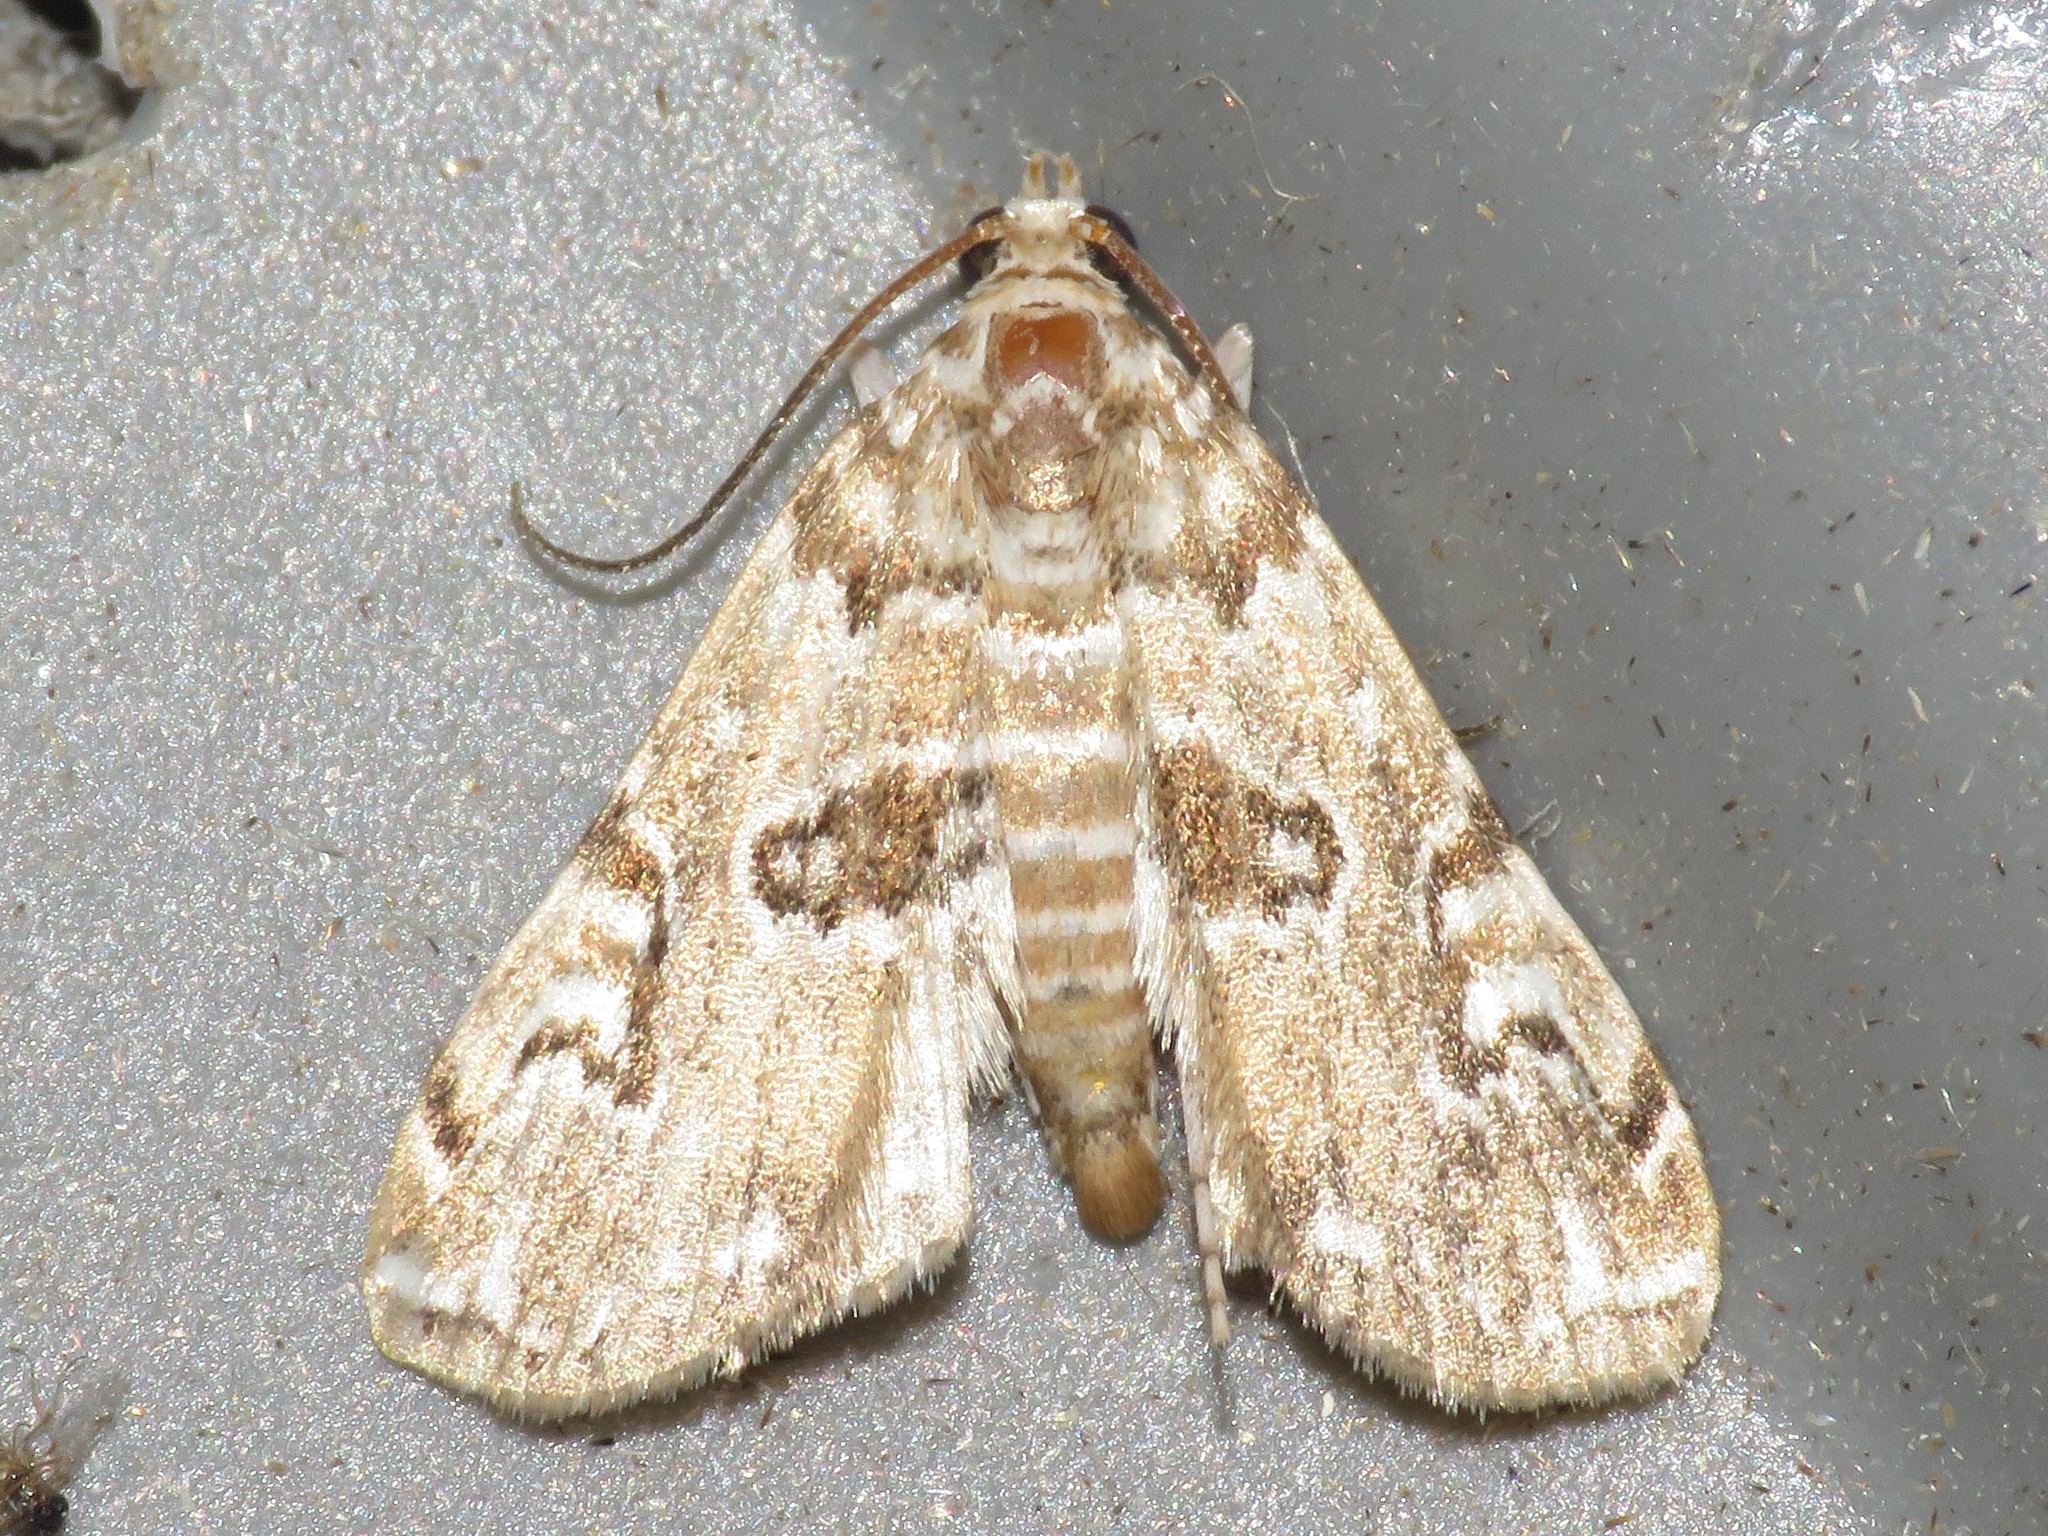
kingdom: Animalia
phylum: Arthropoda
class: Insecta
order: Lepidoptera
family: Crambidae
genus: Elophila
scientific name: Elophila gyralis
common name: Waterlily borer moth
